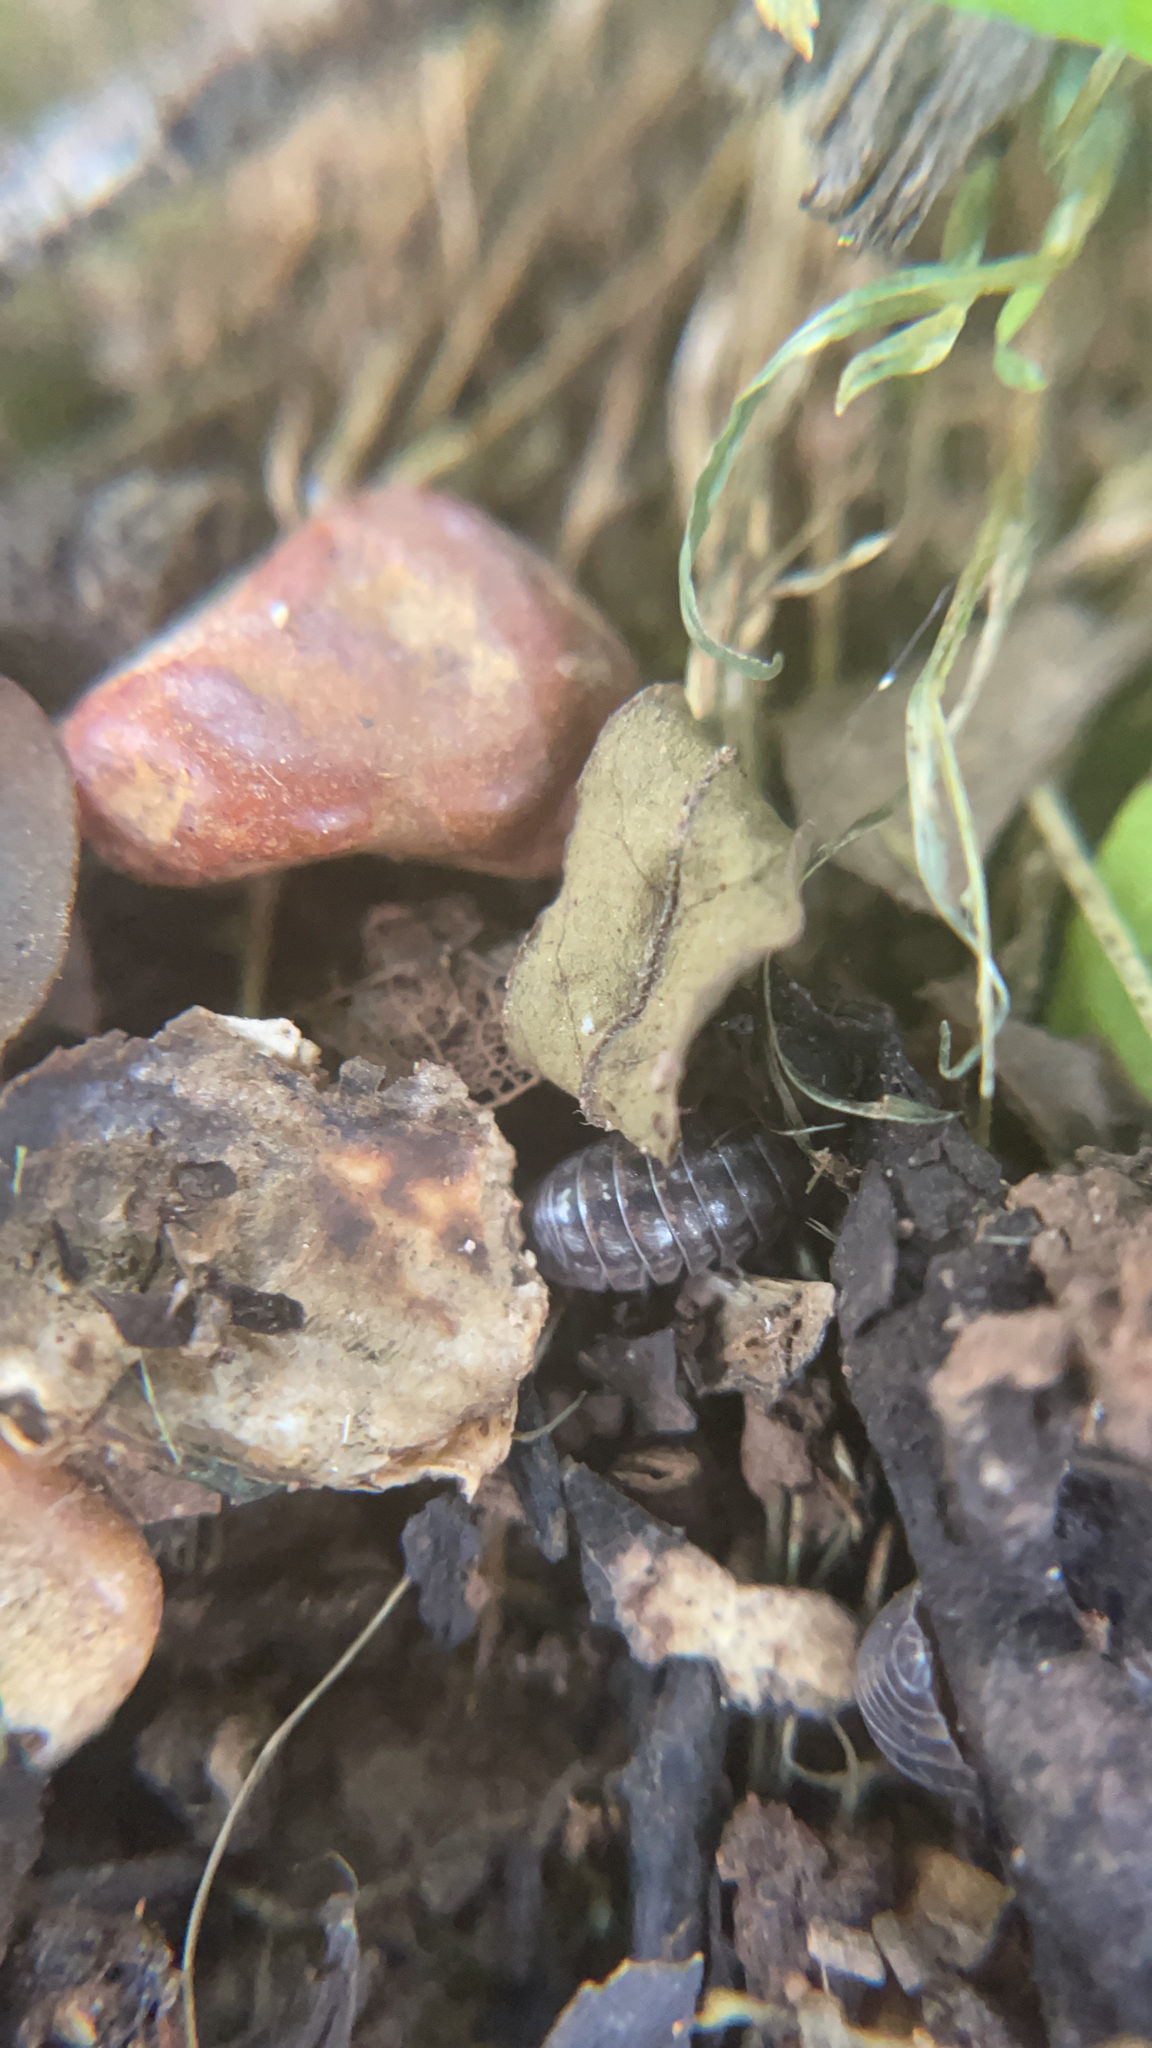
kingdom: Animalia
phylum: Arthropoda
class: Malacostraca
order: Isopoda
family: Armadillidiidae
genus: Armadillidium
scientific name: Armadillidium vulgare
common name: Common pill woodlouse
